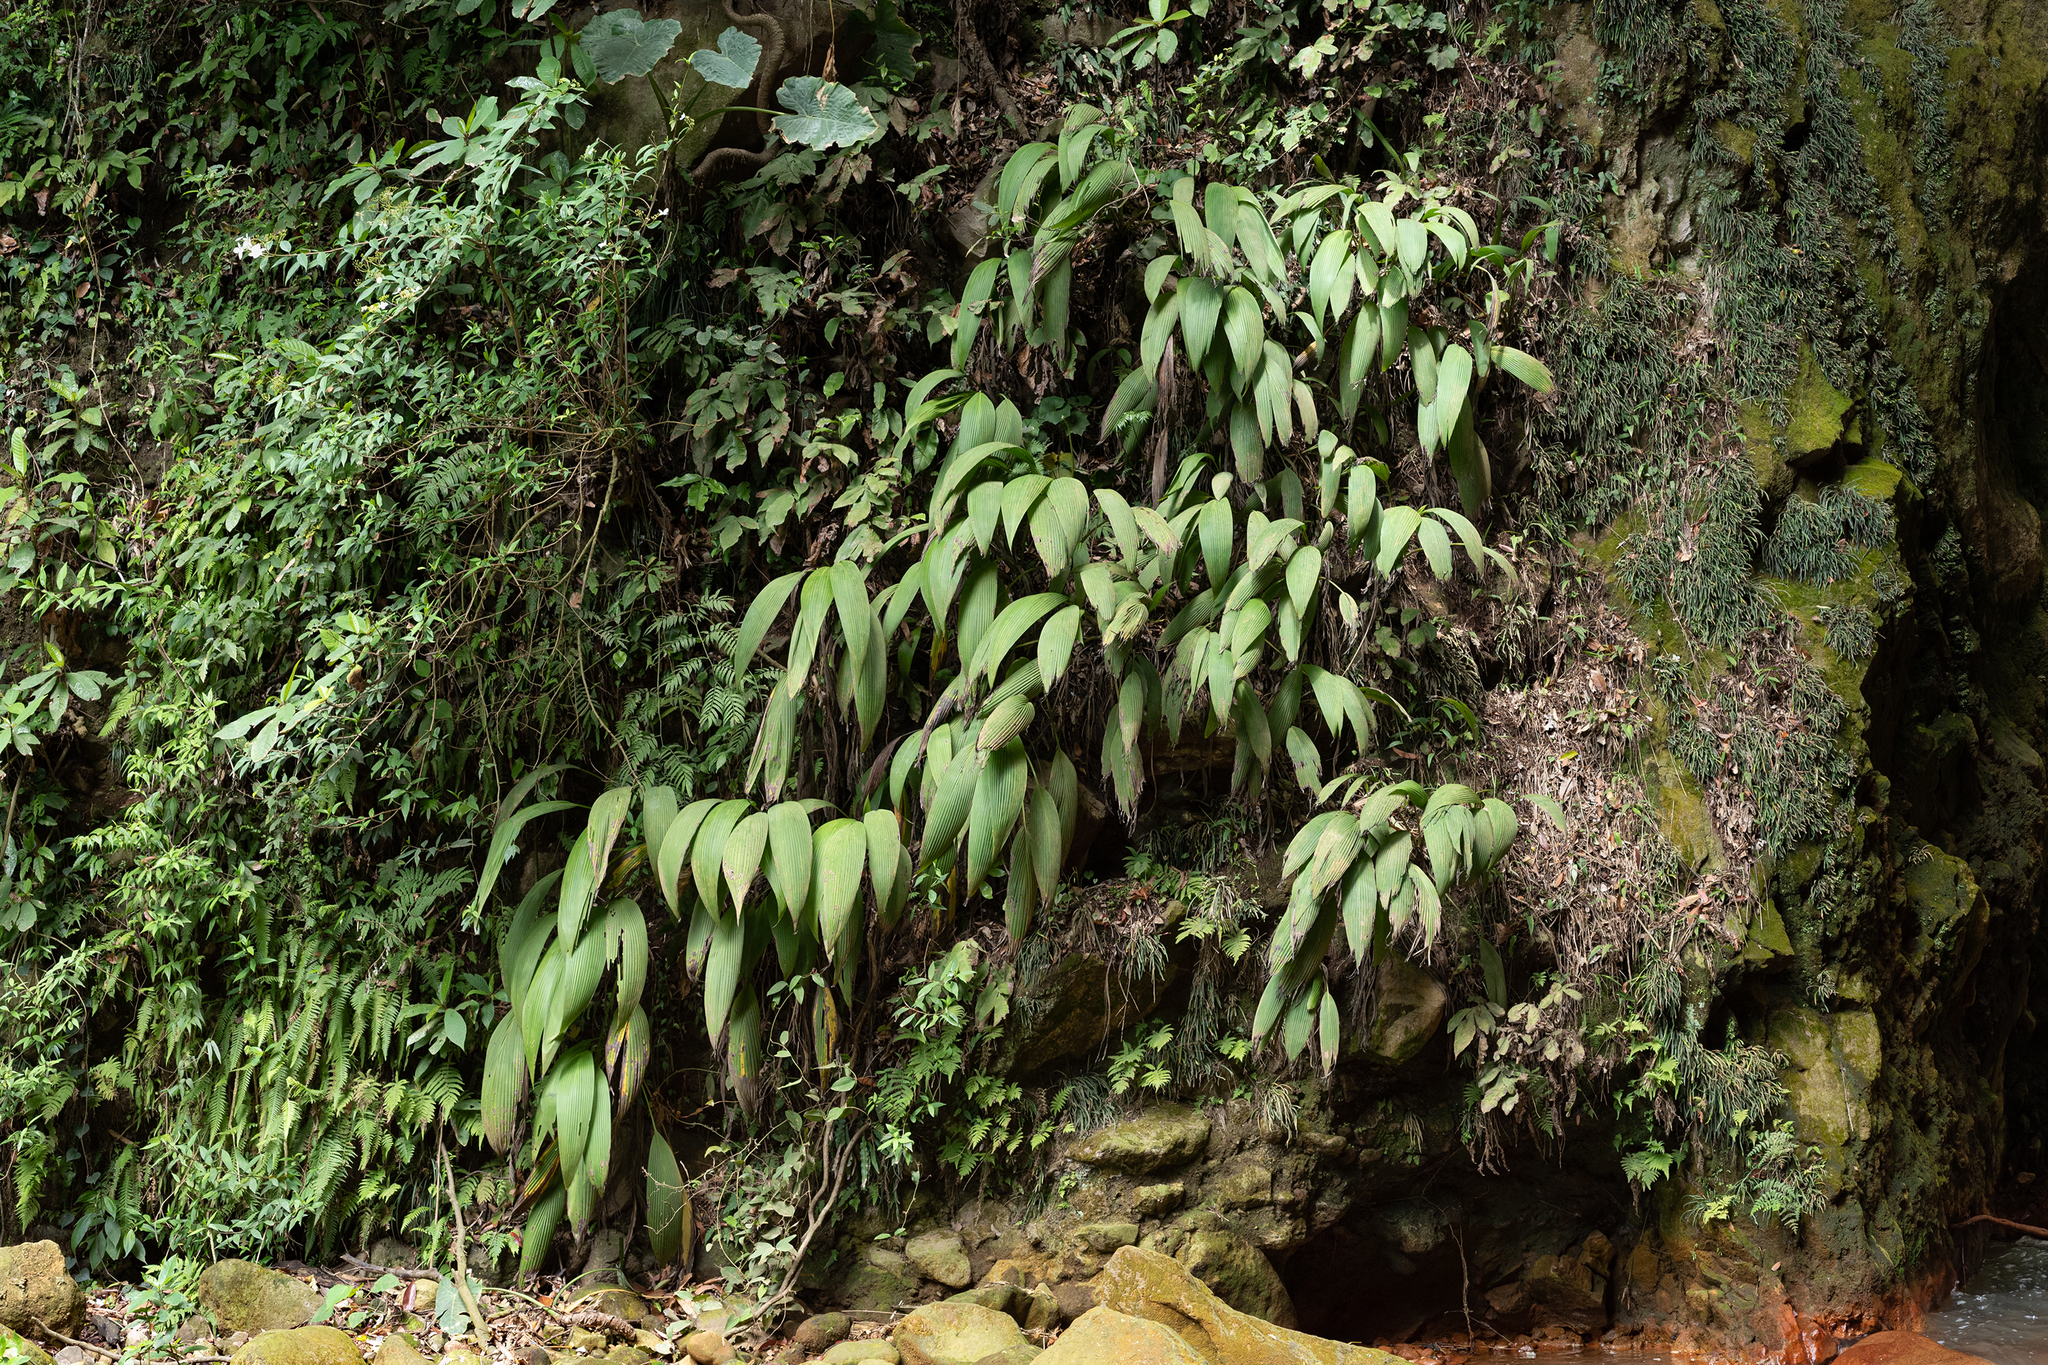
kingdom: Plantae
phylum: Tracheophyta
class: Liliopsida
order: Asparagales
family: Hypoxidaceae
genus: Curculigo
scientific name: Curculigo capitulata
